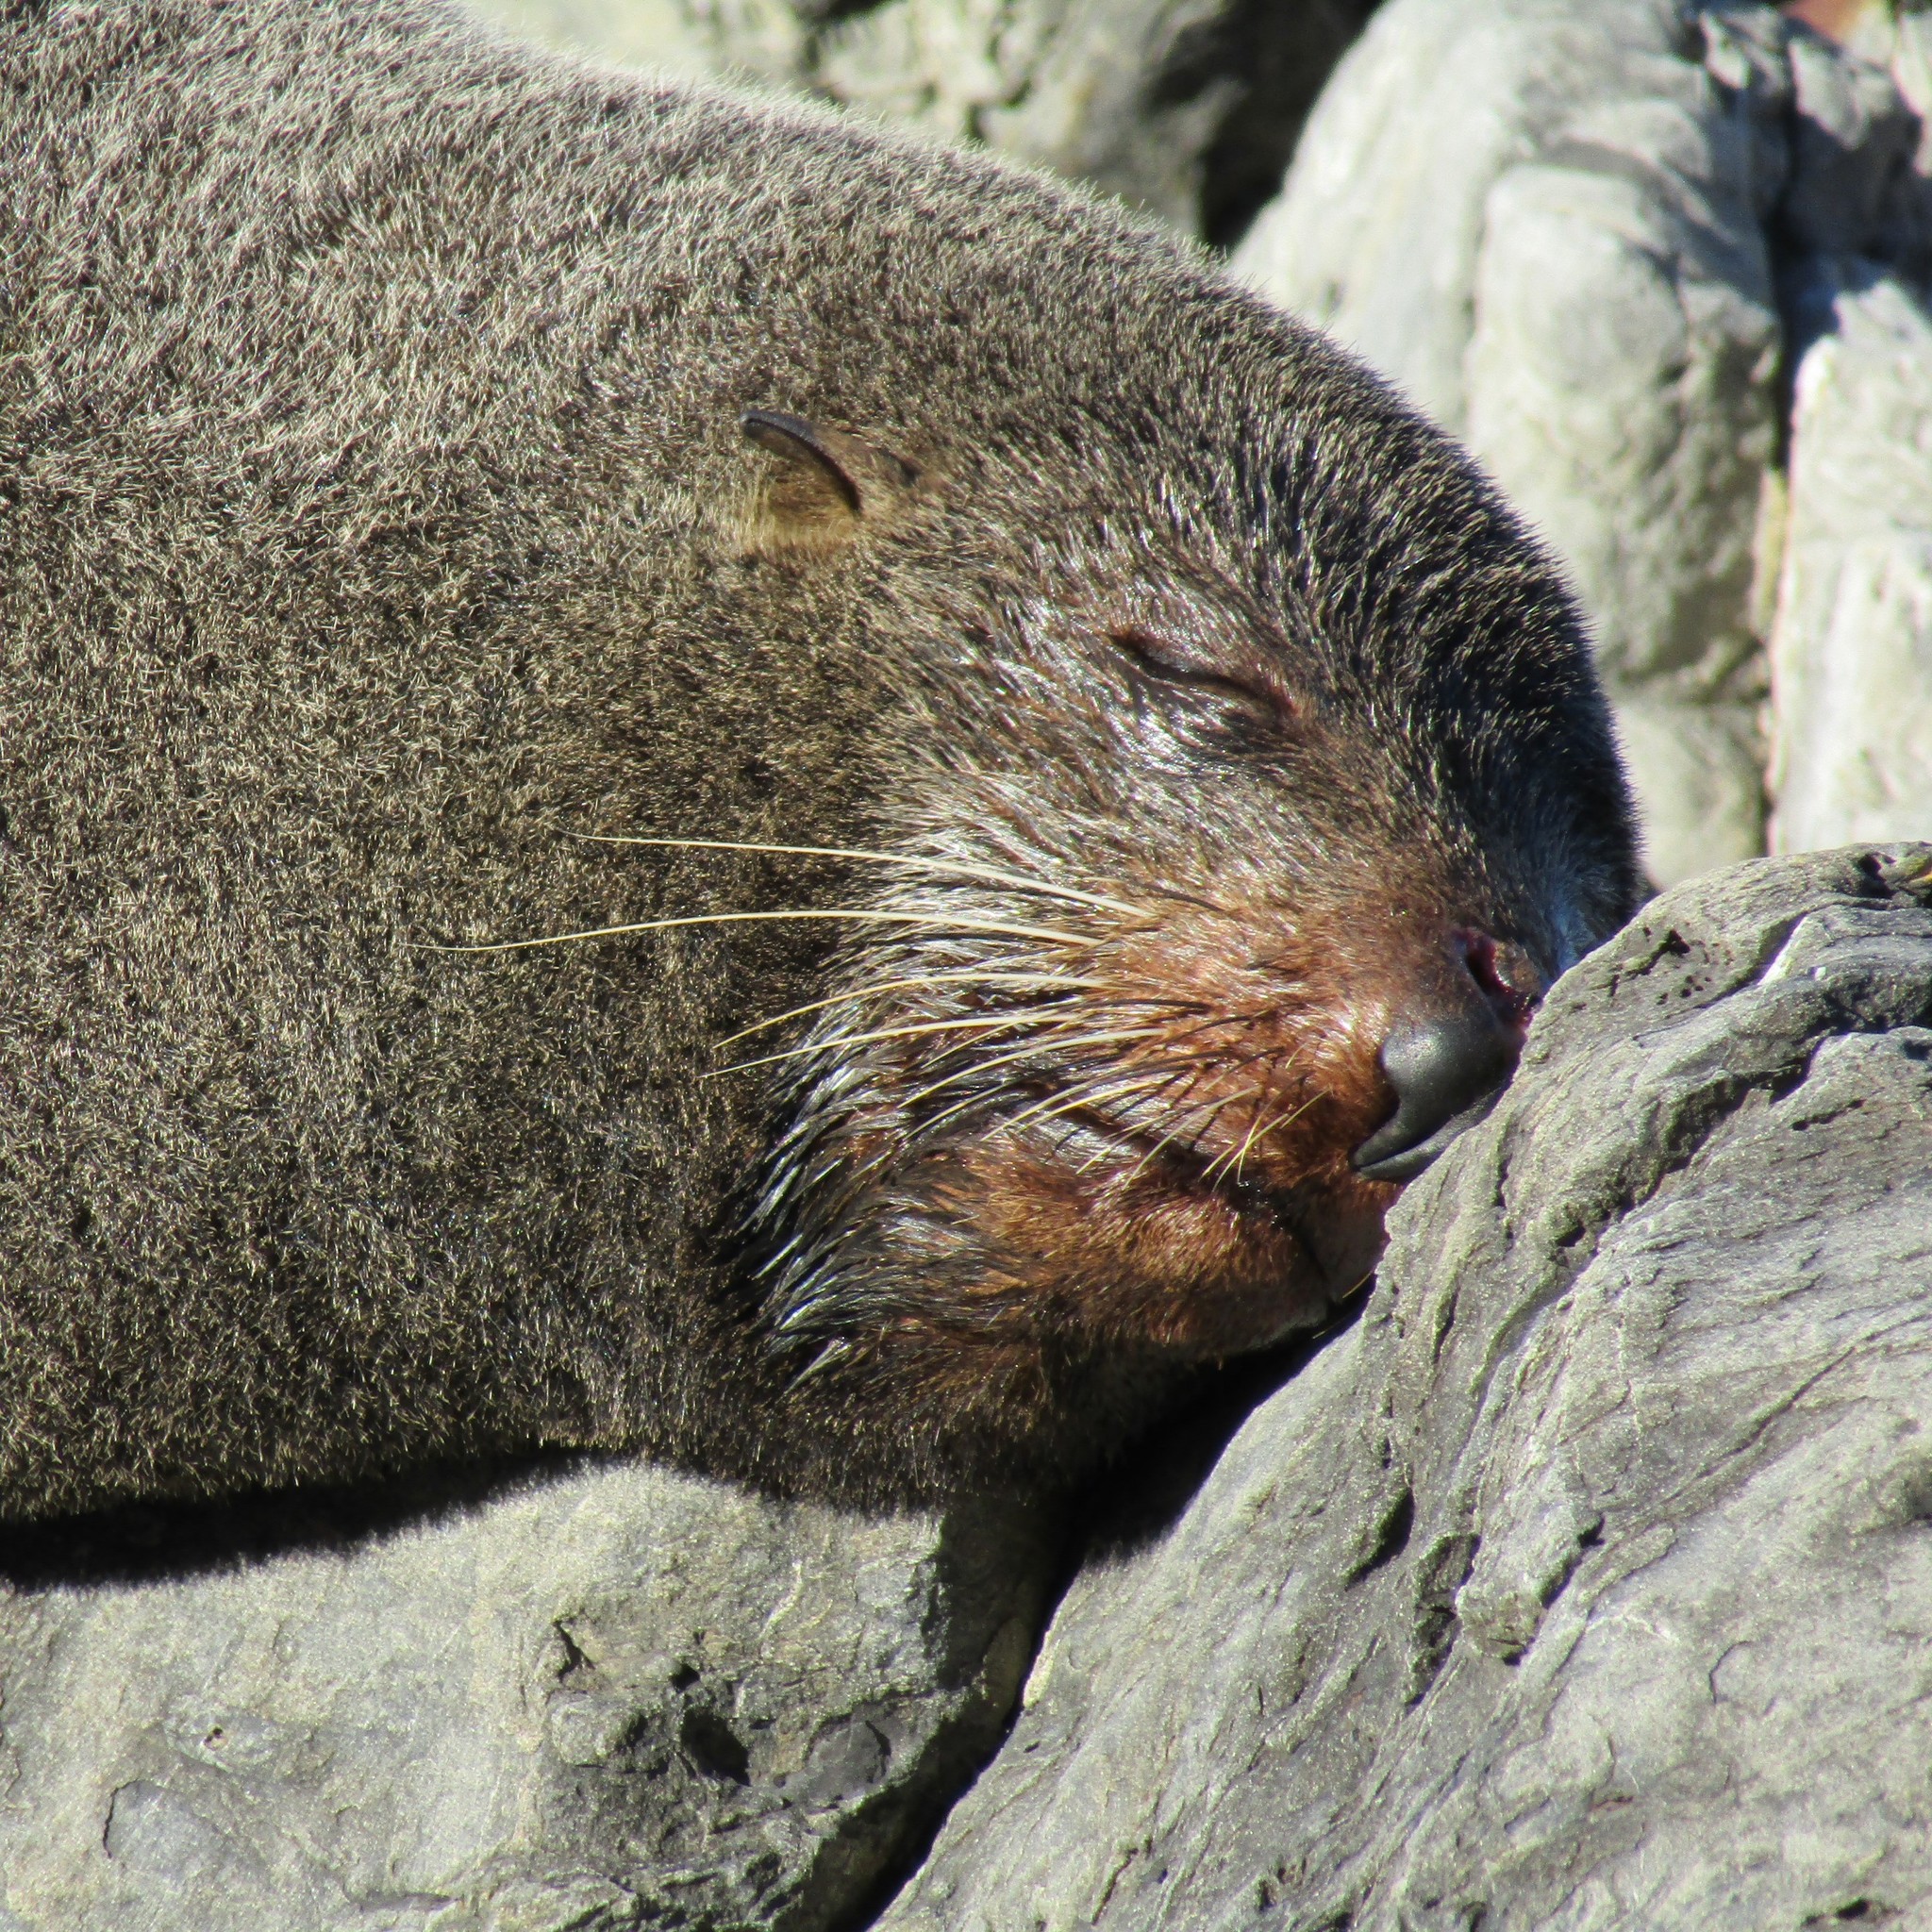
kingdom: Animalia
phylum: Chordata
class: Mammalia
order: Carnivora
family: Otariidae
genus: Arctocephalus
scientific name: Arctocephalus forsteri
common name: New zealand fur seal
